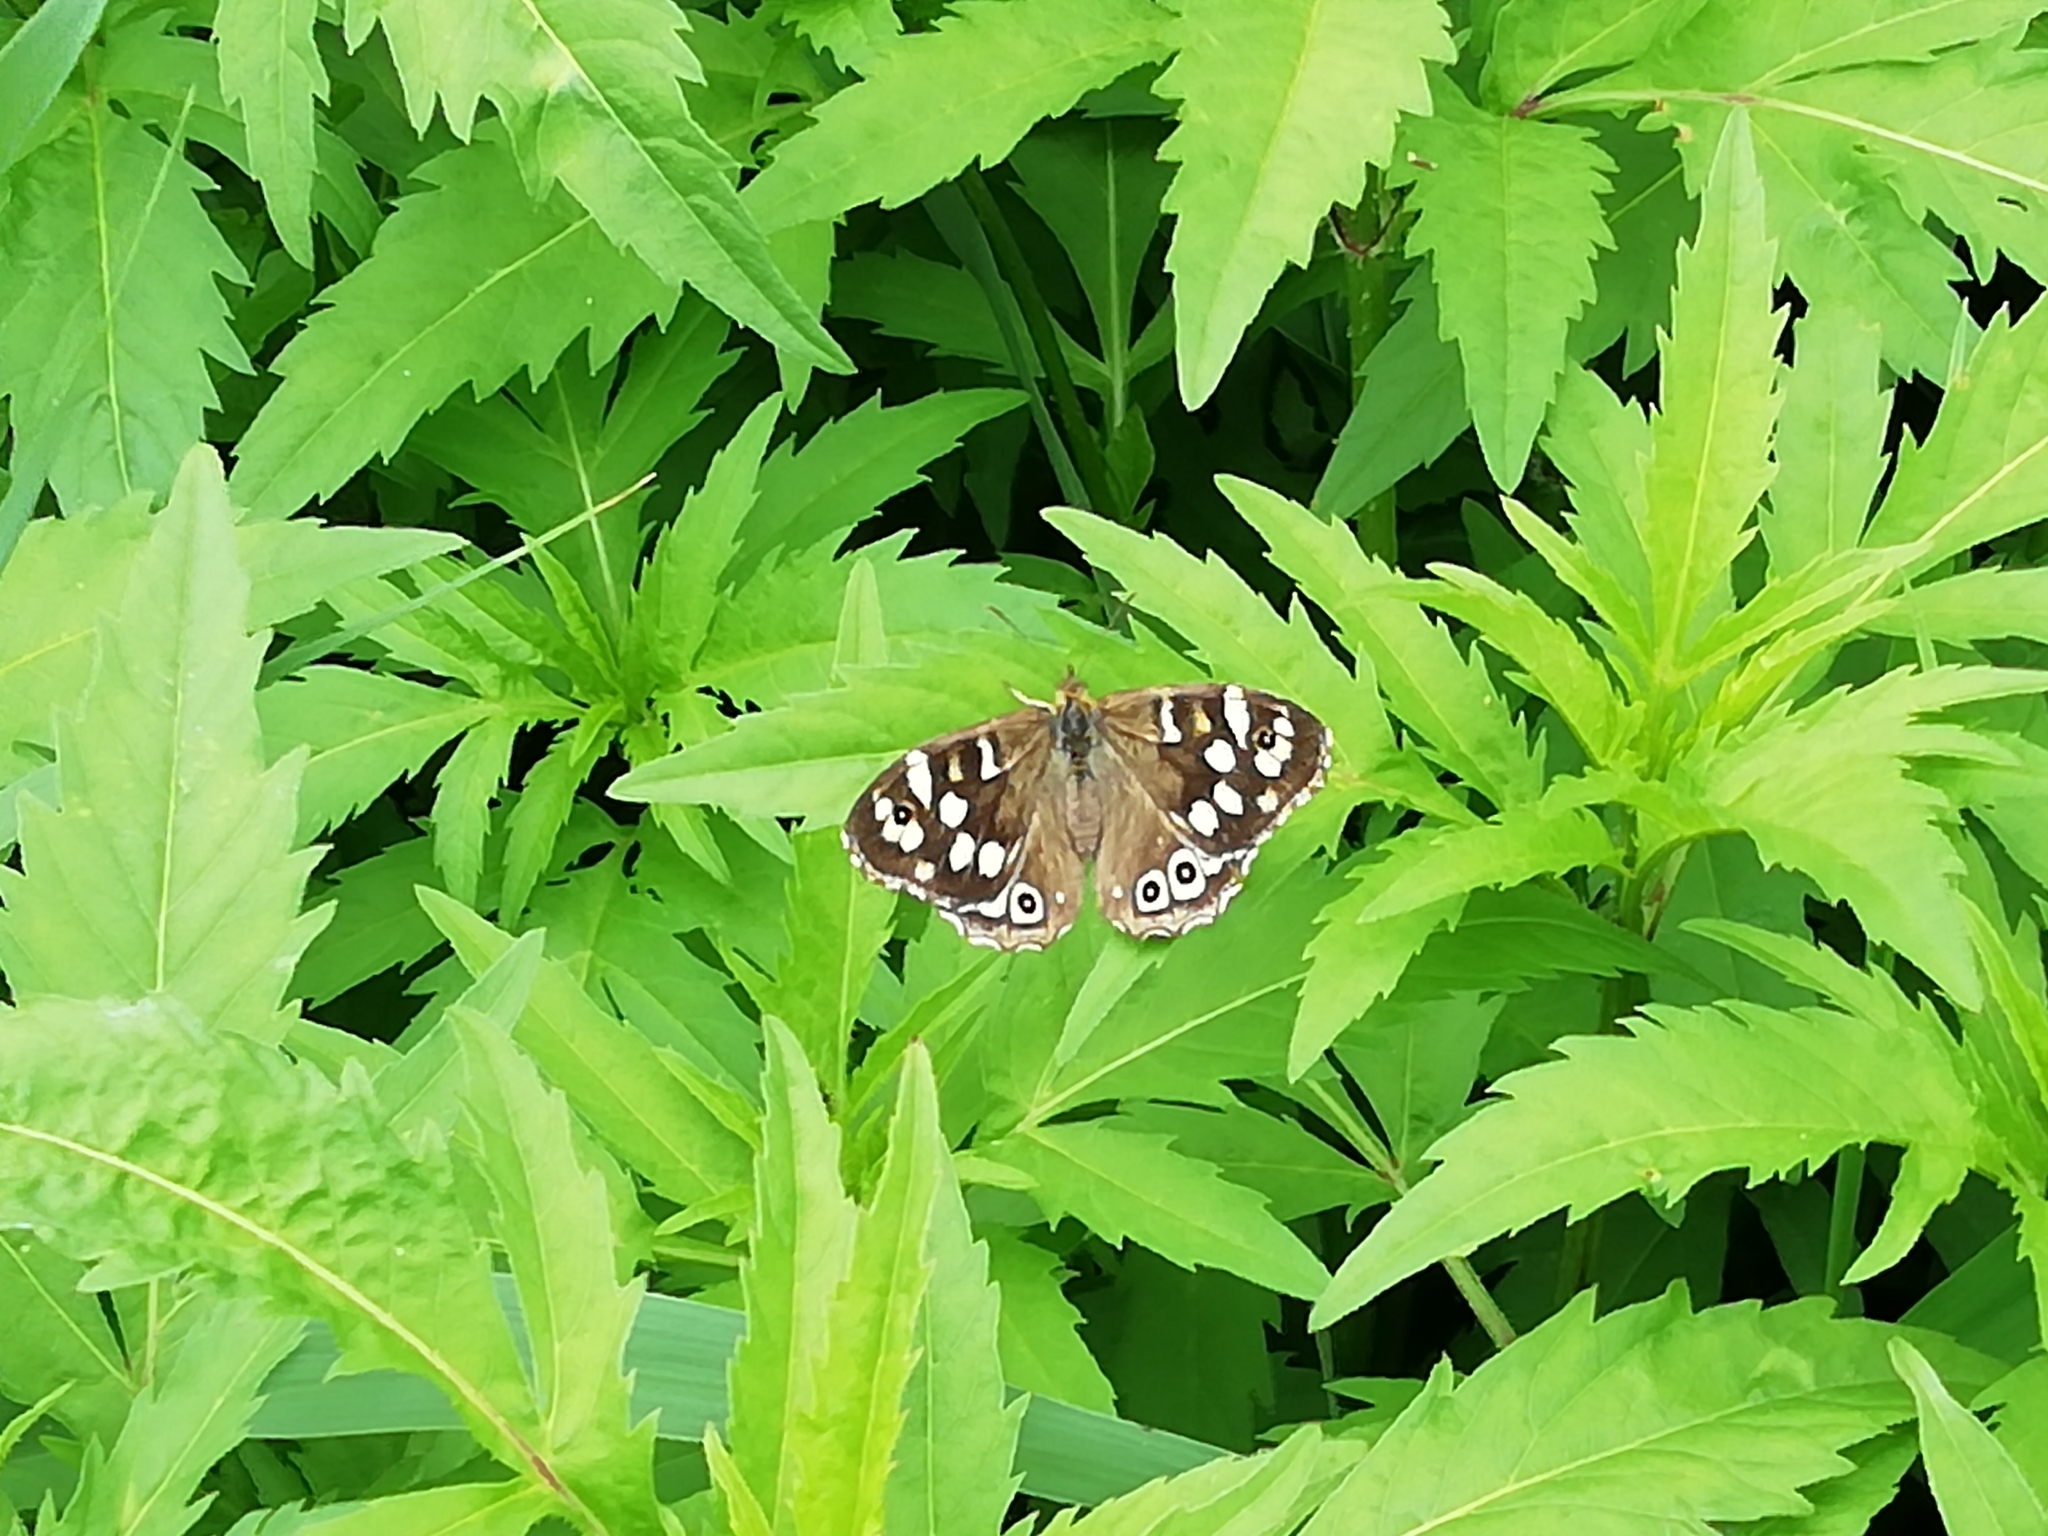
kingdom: Animalia
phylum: Arthropoda
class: Insecta
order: Lepidoptera
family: Nymphalidae
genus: Pararge
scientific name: Pararge aegeria
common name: Speckled wood
